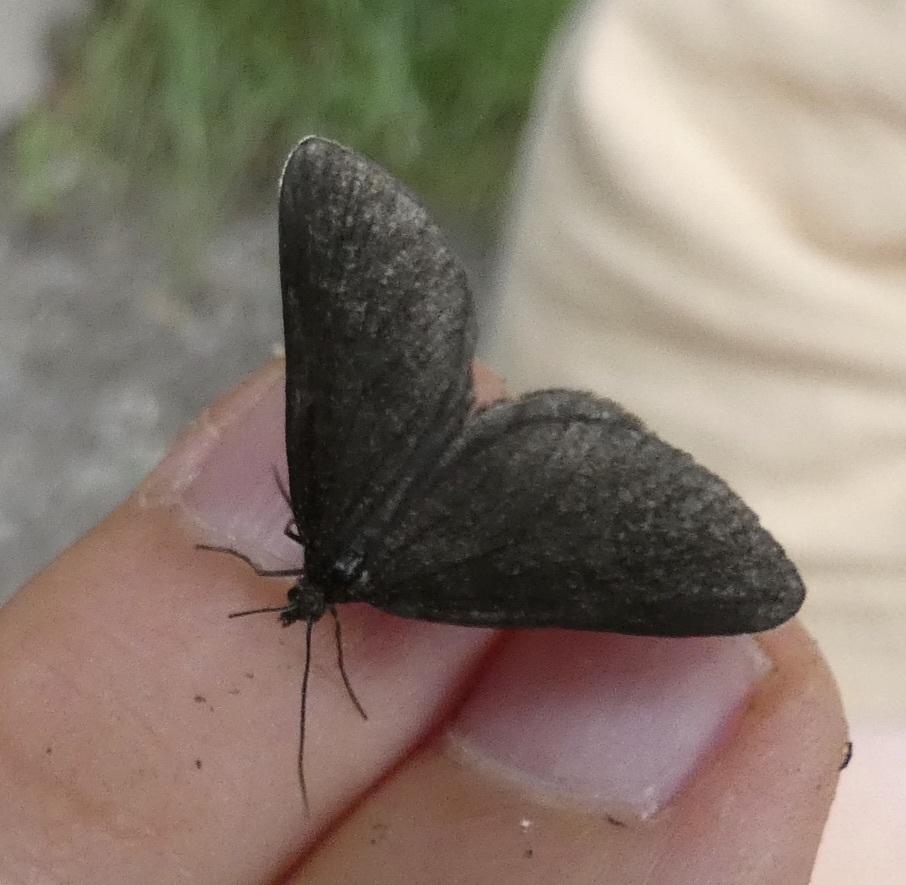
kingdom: Animalia
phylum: Arthropoda
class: Insecta
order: Lepidoptera
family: Geometridae
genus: Odezia
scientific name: Odezia atrata
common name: Chimney sweeper
